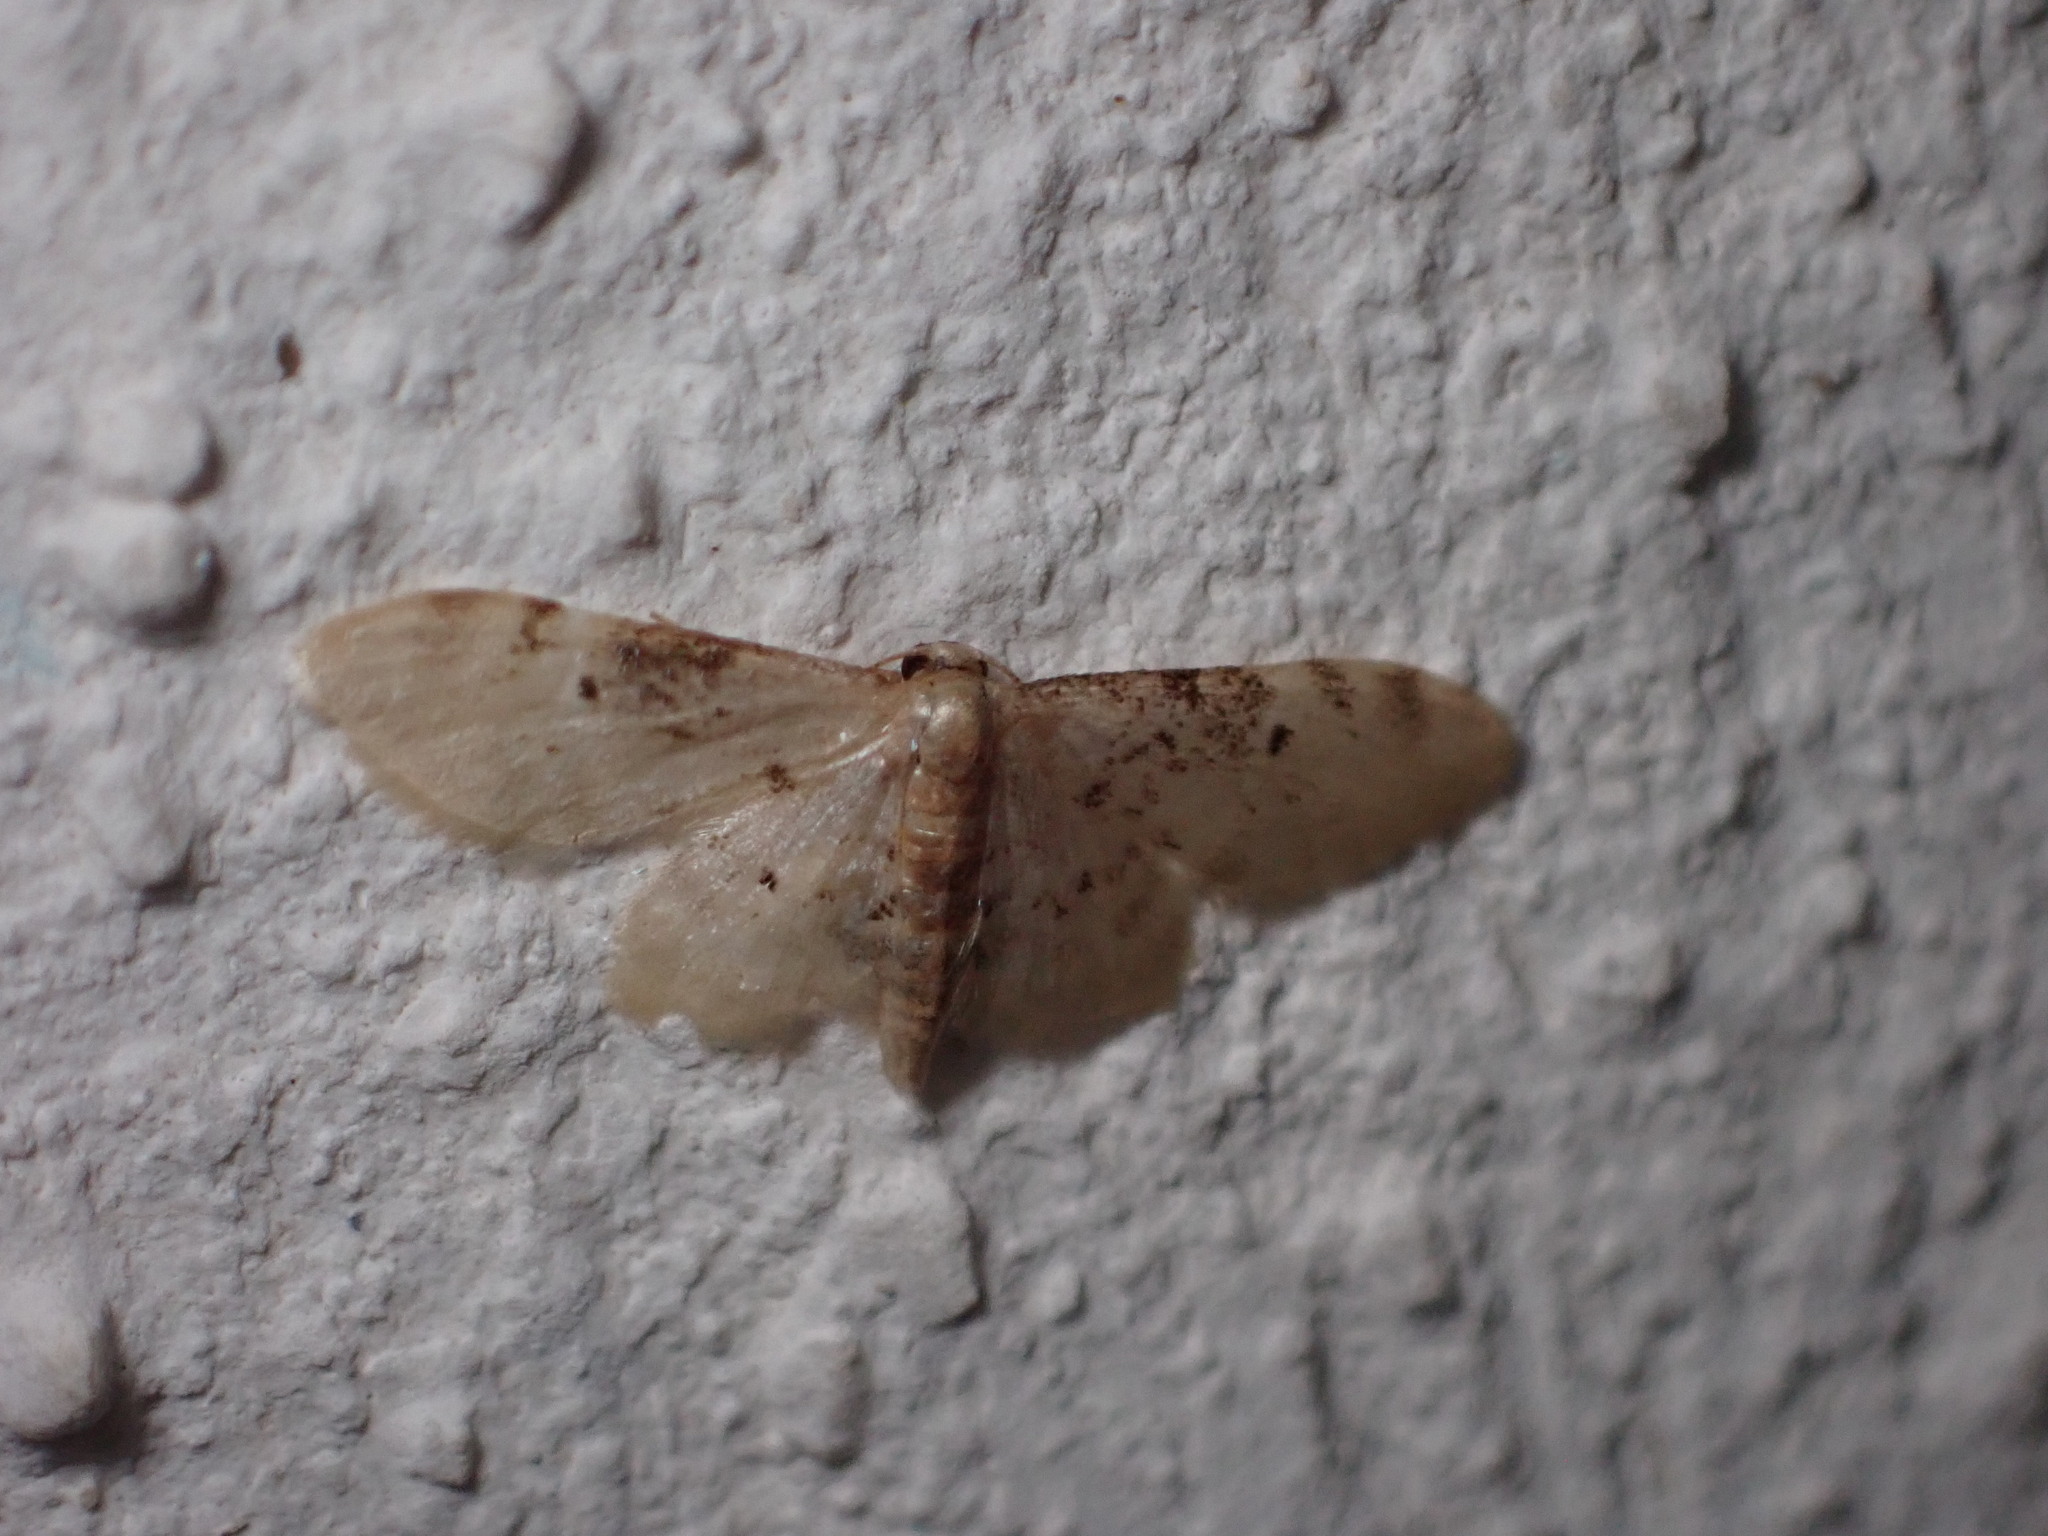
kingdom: Animalia
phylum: Arthropoda
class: Insecta
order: Lepidoptera
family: Geometridae
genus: Idaea
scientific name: Idaea filicata
